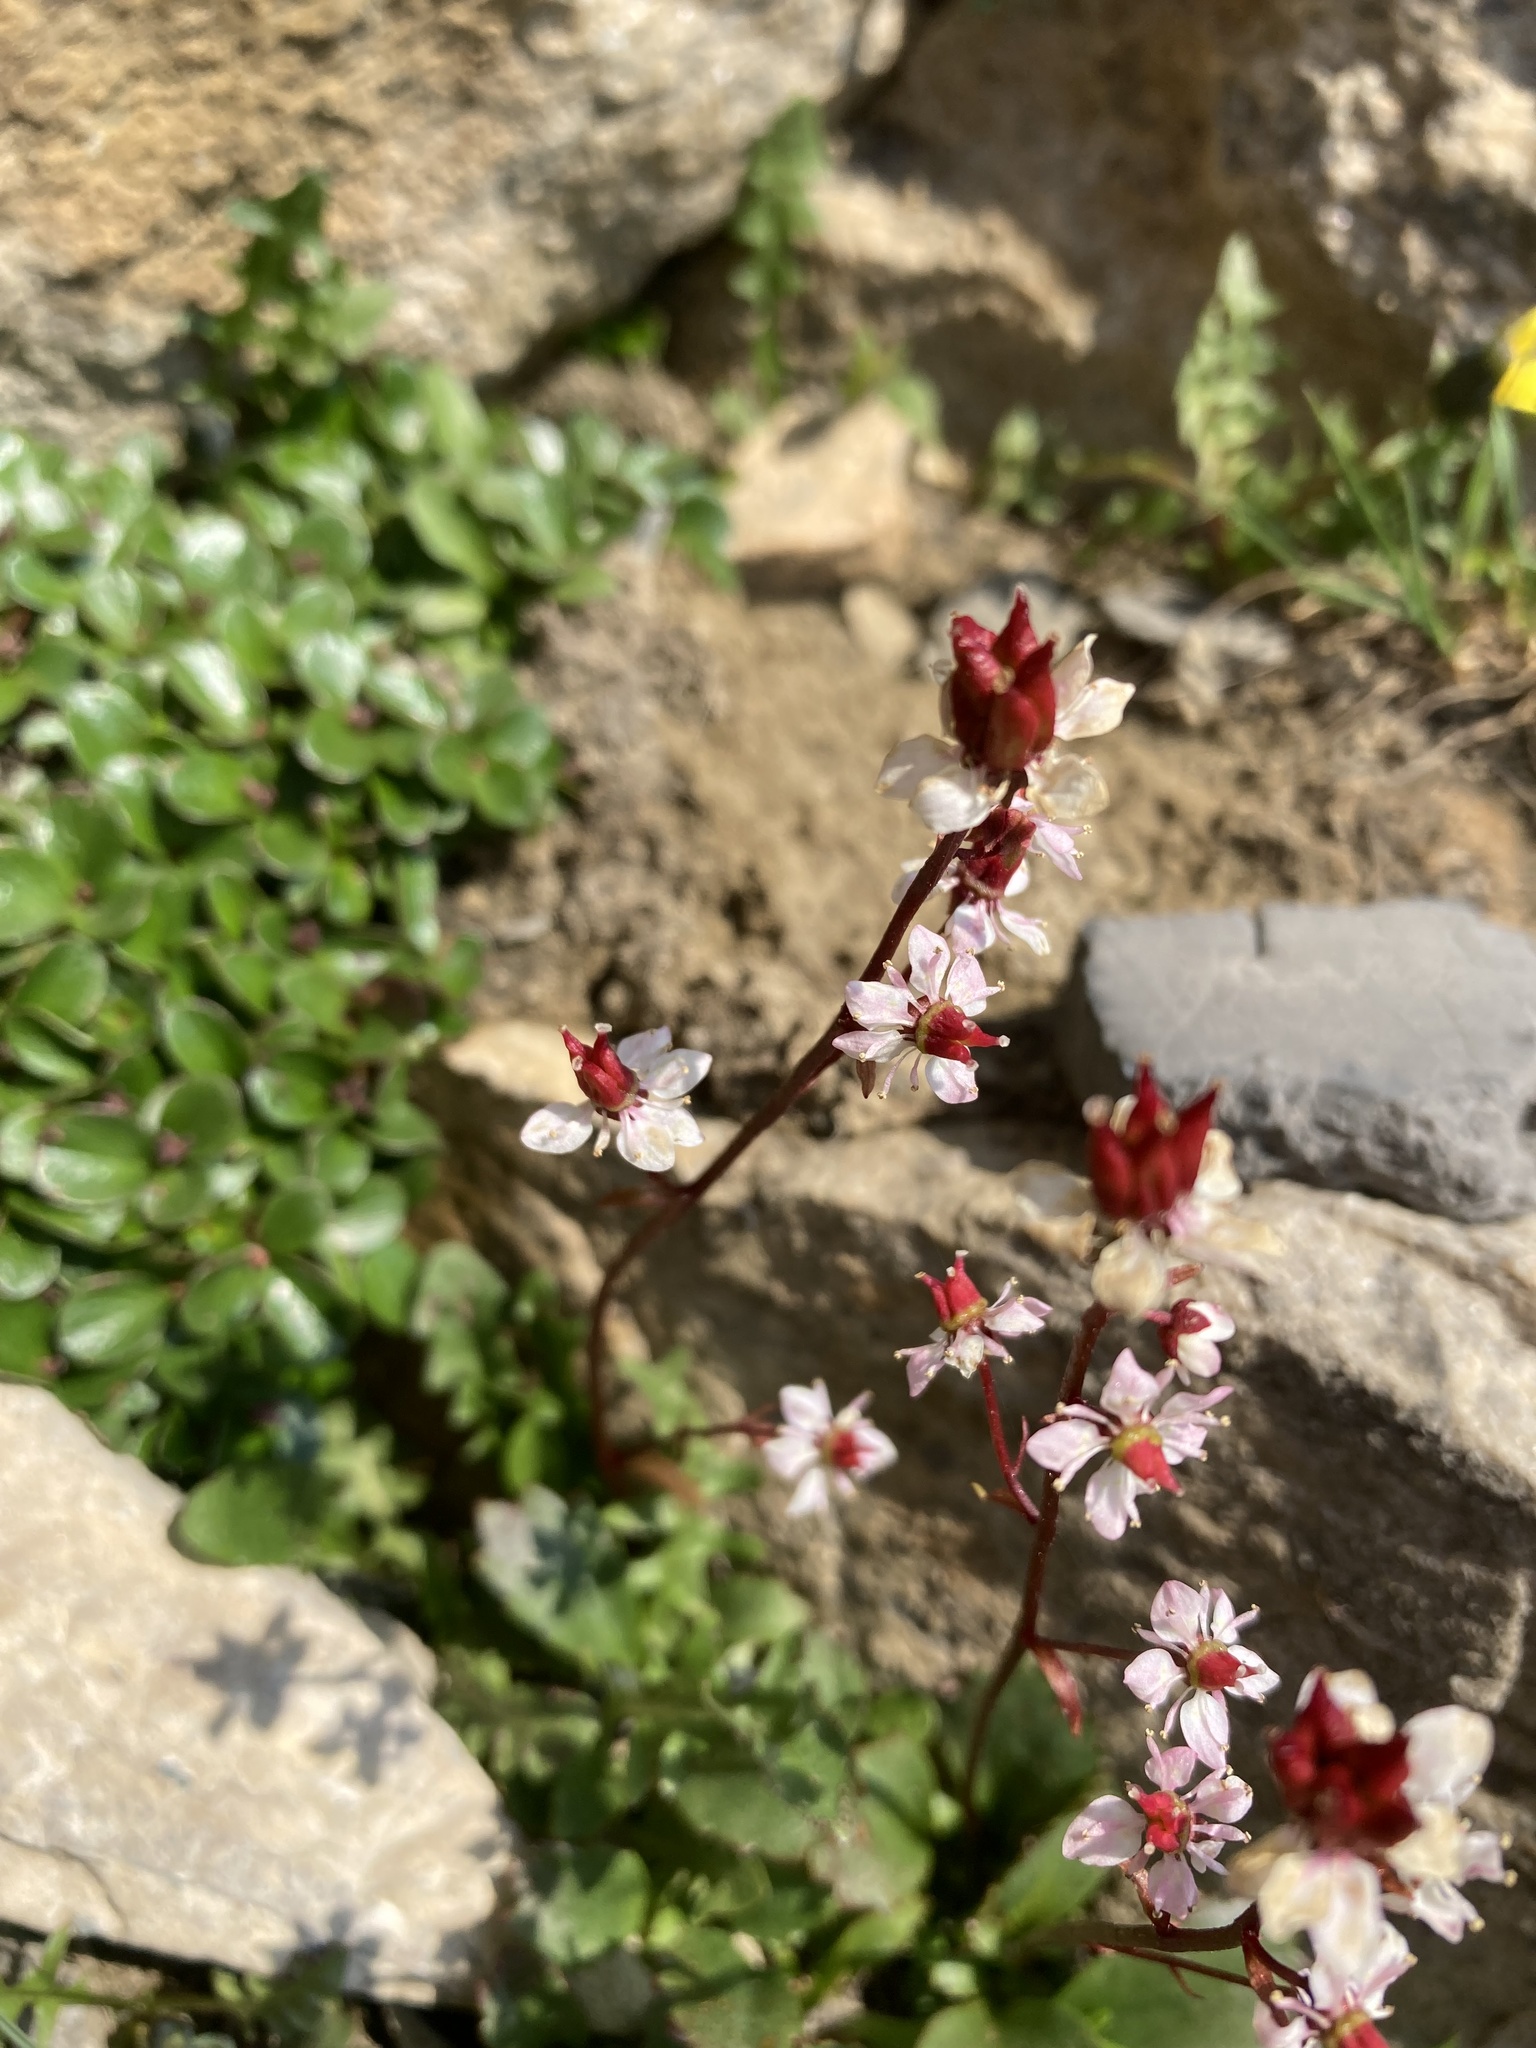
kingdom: Plantae
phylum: Tracheophyta
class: Magnoliopsida
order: Saxifragales
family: Saxifragaceae
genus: Micranthes
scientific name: Micranthes lyallii
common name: Lyall's saxifrage
